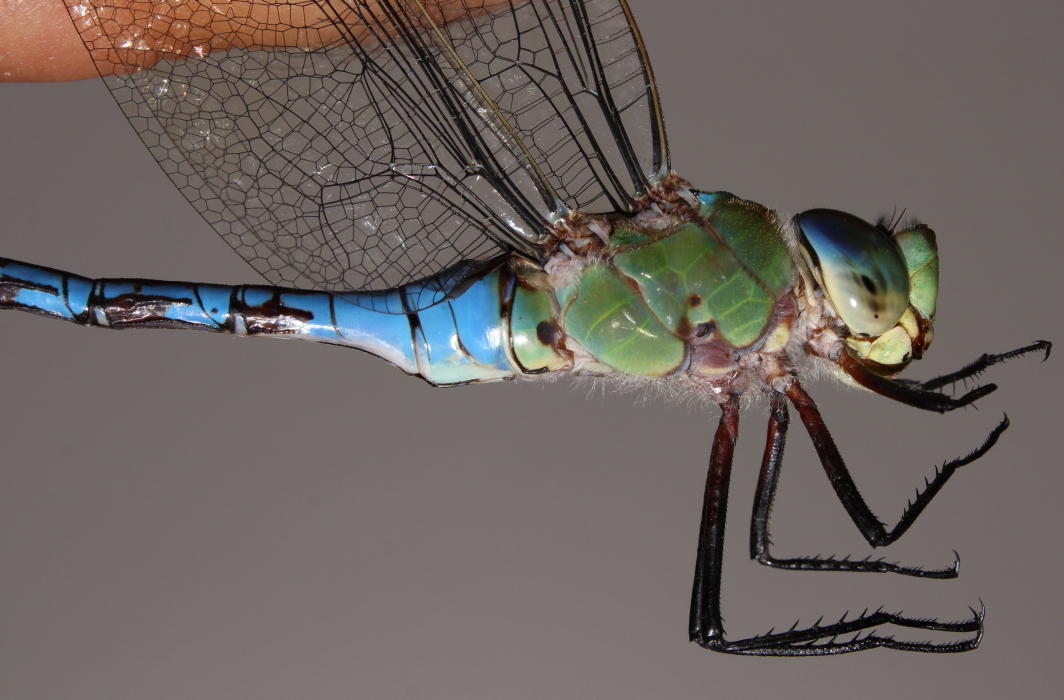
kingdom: Animalia
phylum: Arthropoda
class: Insecta
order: Odonata
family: Aeshnidae
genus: Anax
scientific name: Anax imperator
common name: Emperor dragonfly
